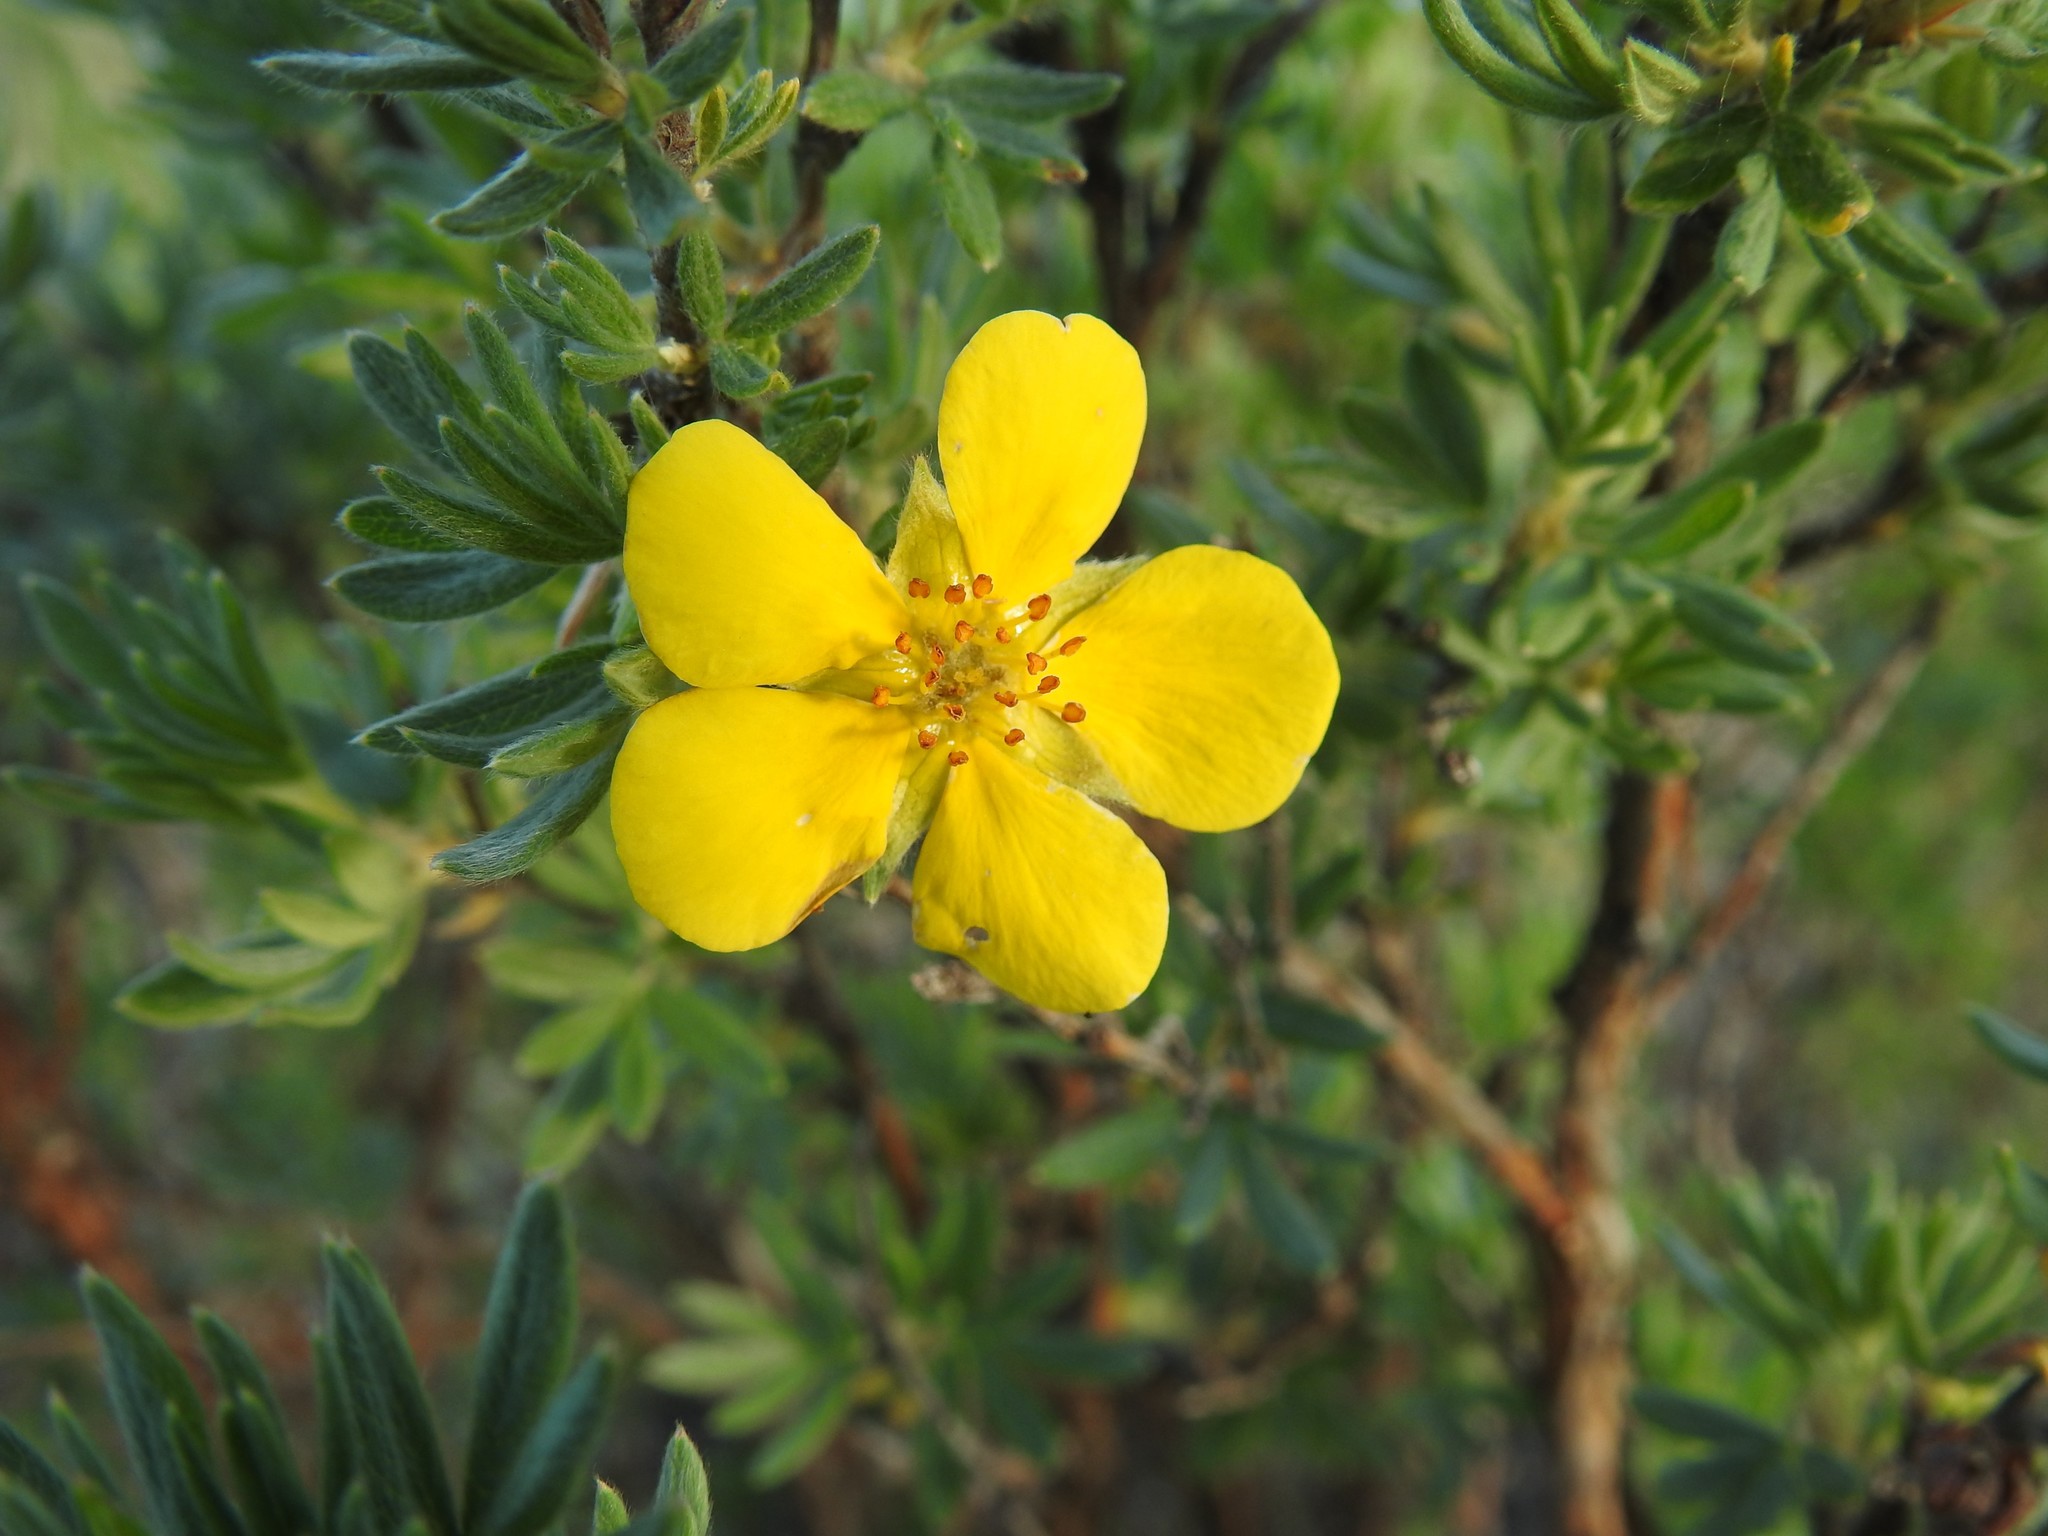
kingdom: Plantae
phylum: Tracheophyta
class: Magnoliopsida
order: Rosales
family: Rosaceae
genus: Dasiphora
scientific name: Dasiphora fruticosa
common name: Shrubby cinquefoil
